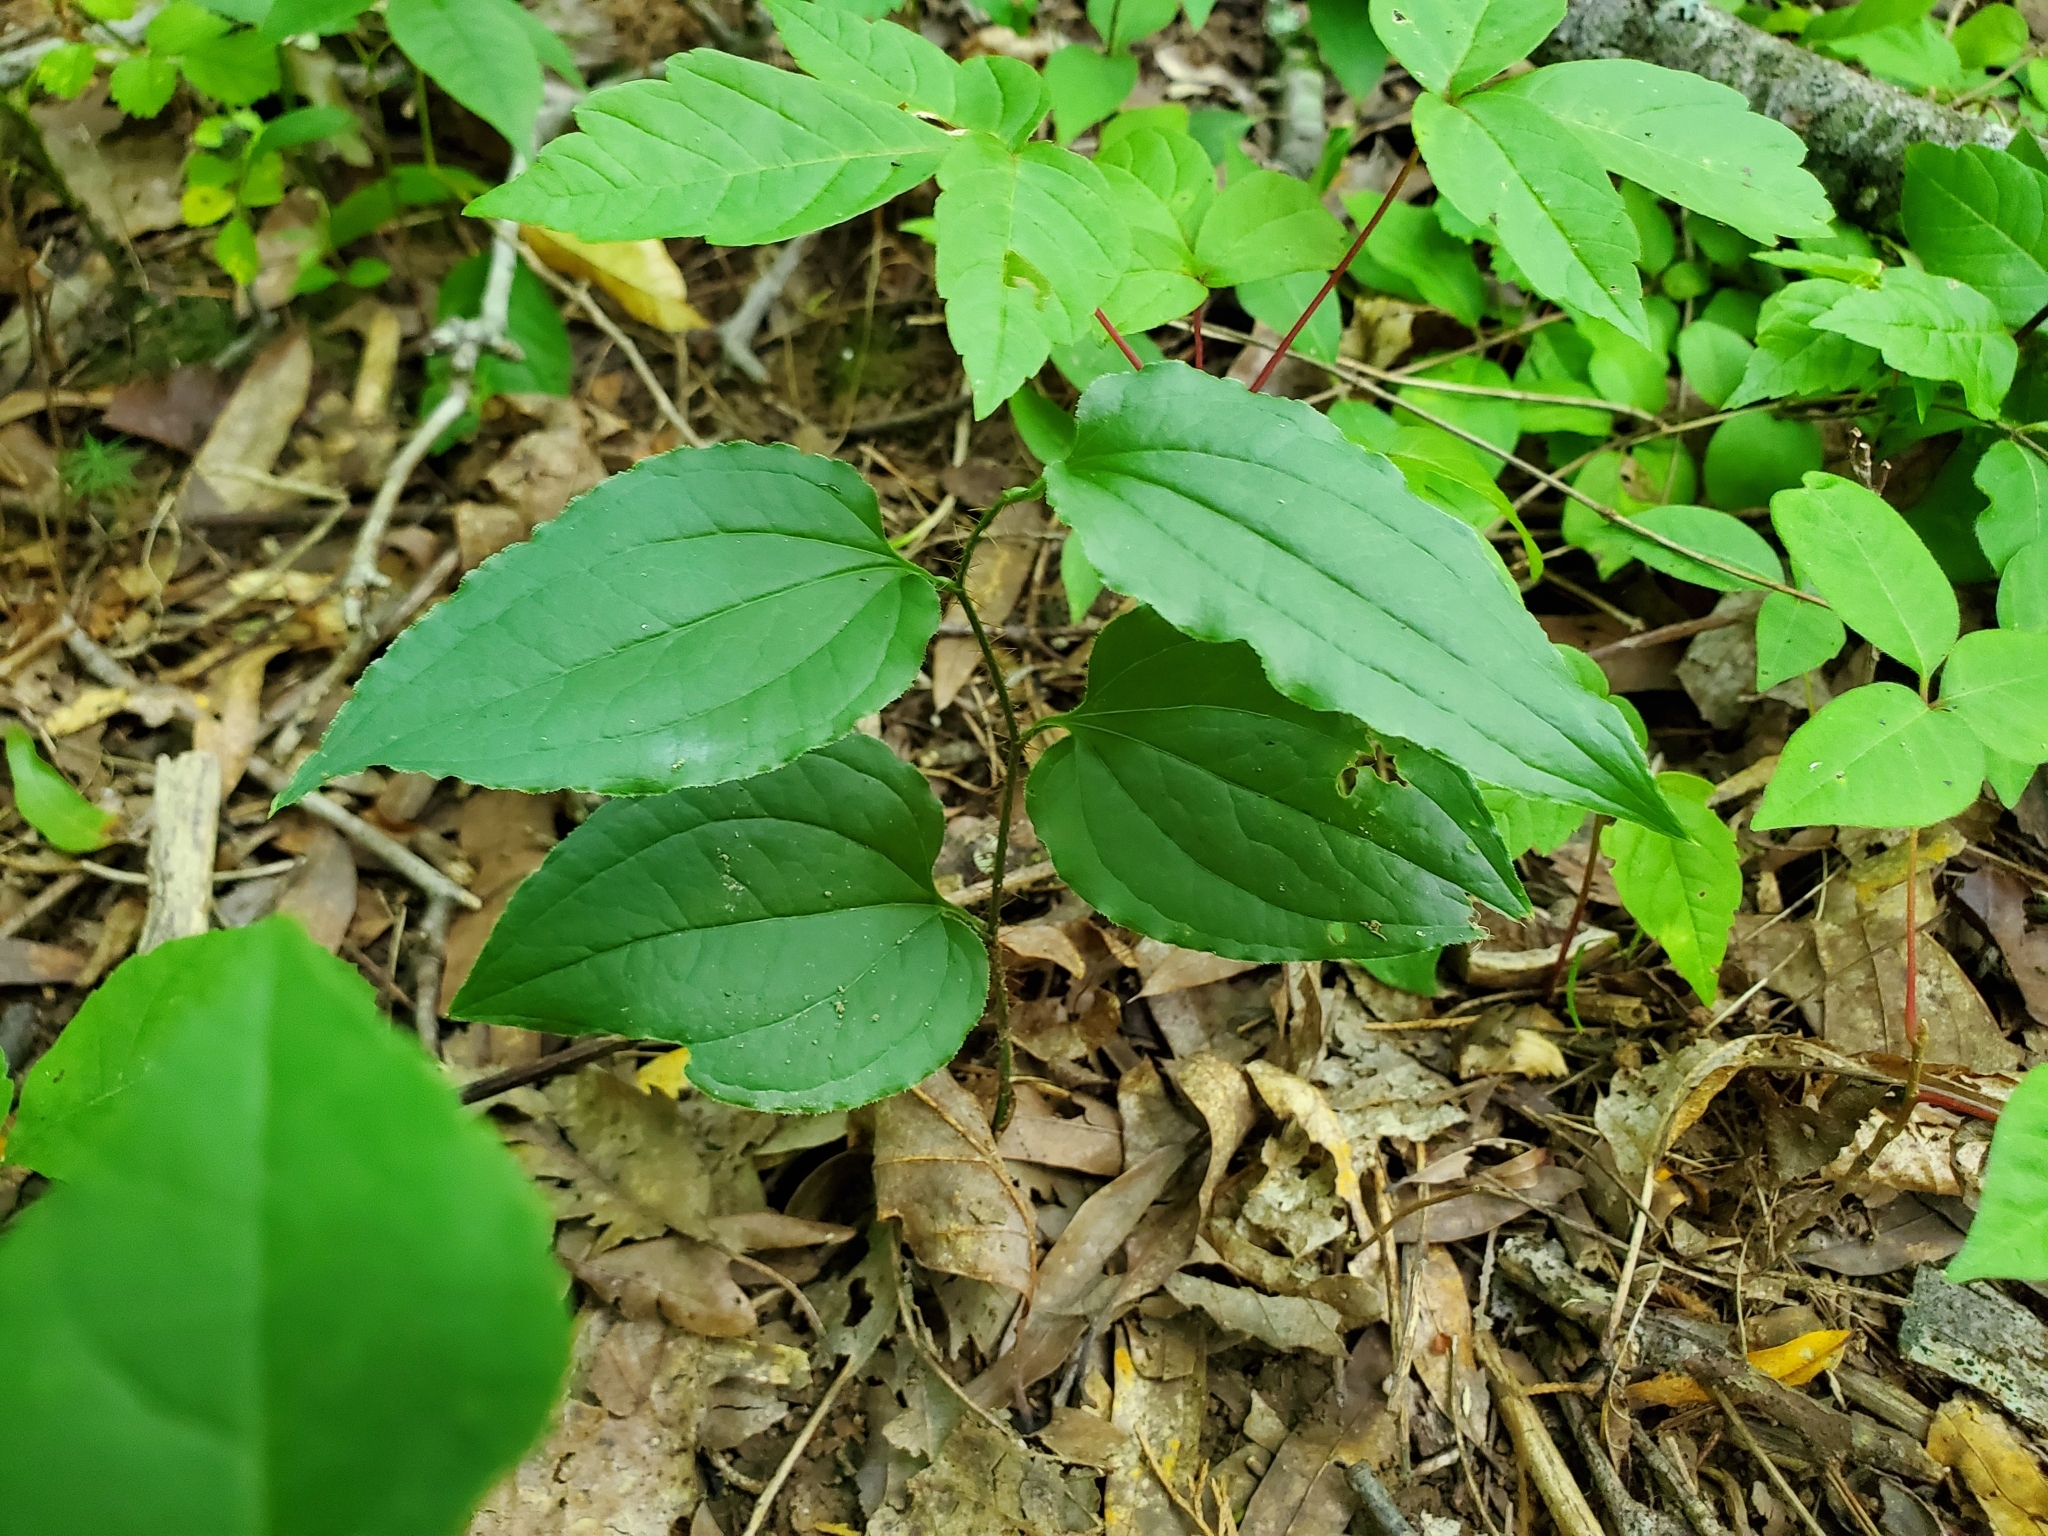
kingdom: Plantae
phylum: Tracheophyta
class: Liliopsida
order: Liliales
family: Smilacaceae
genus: Smilax
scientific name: Smilax tamnoides
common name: Hellfetter
